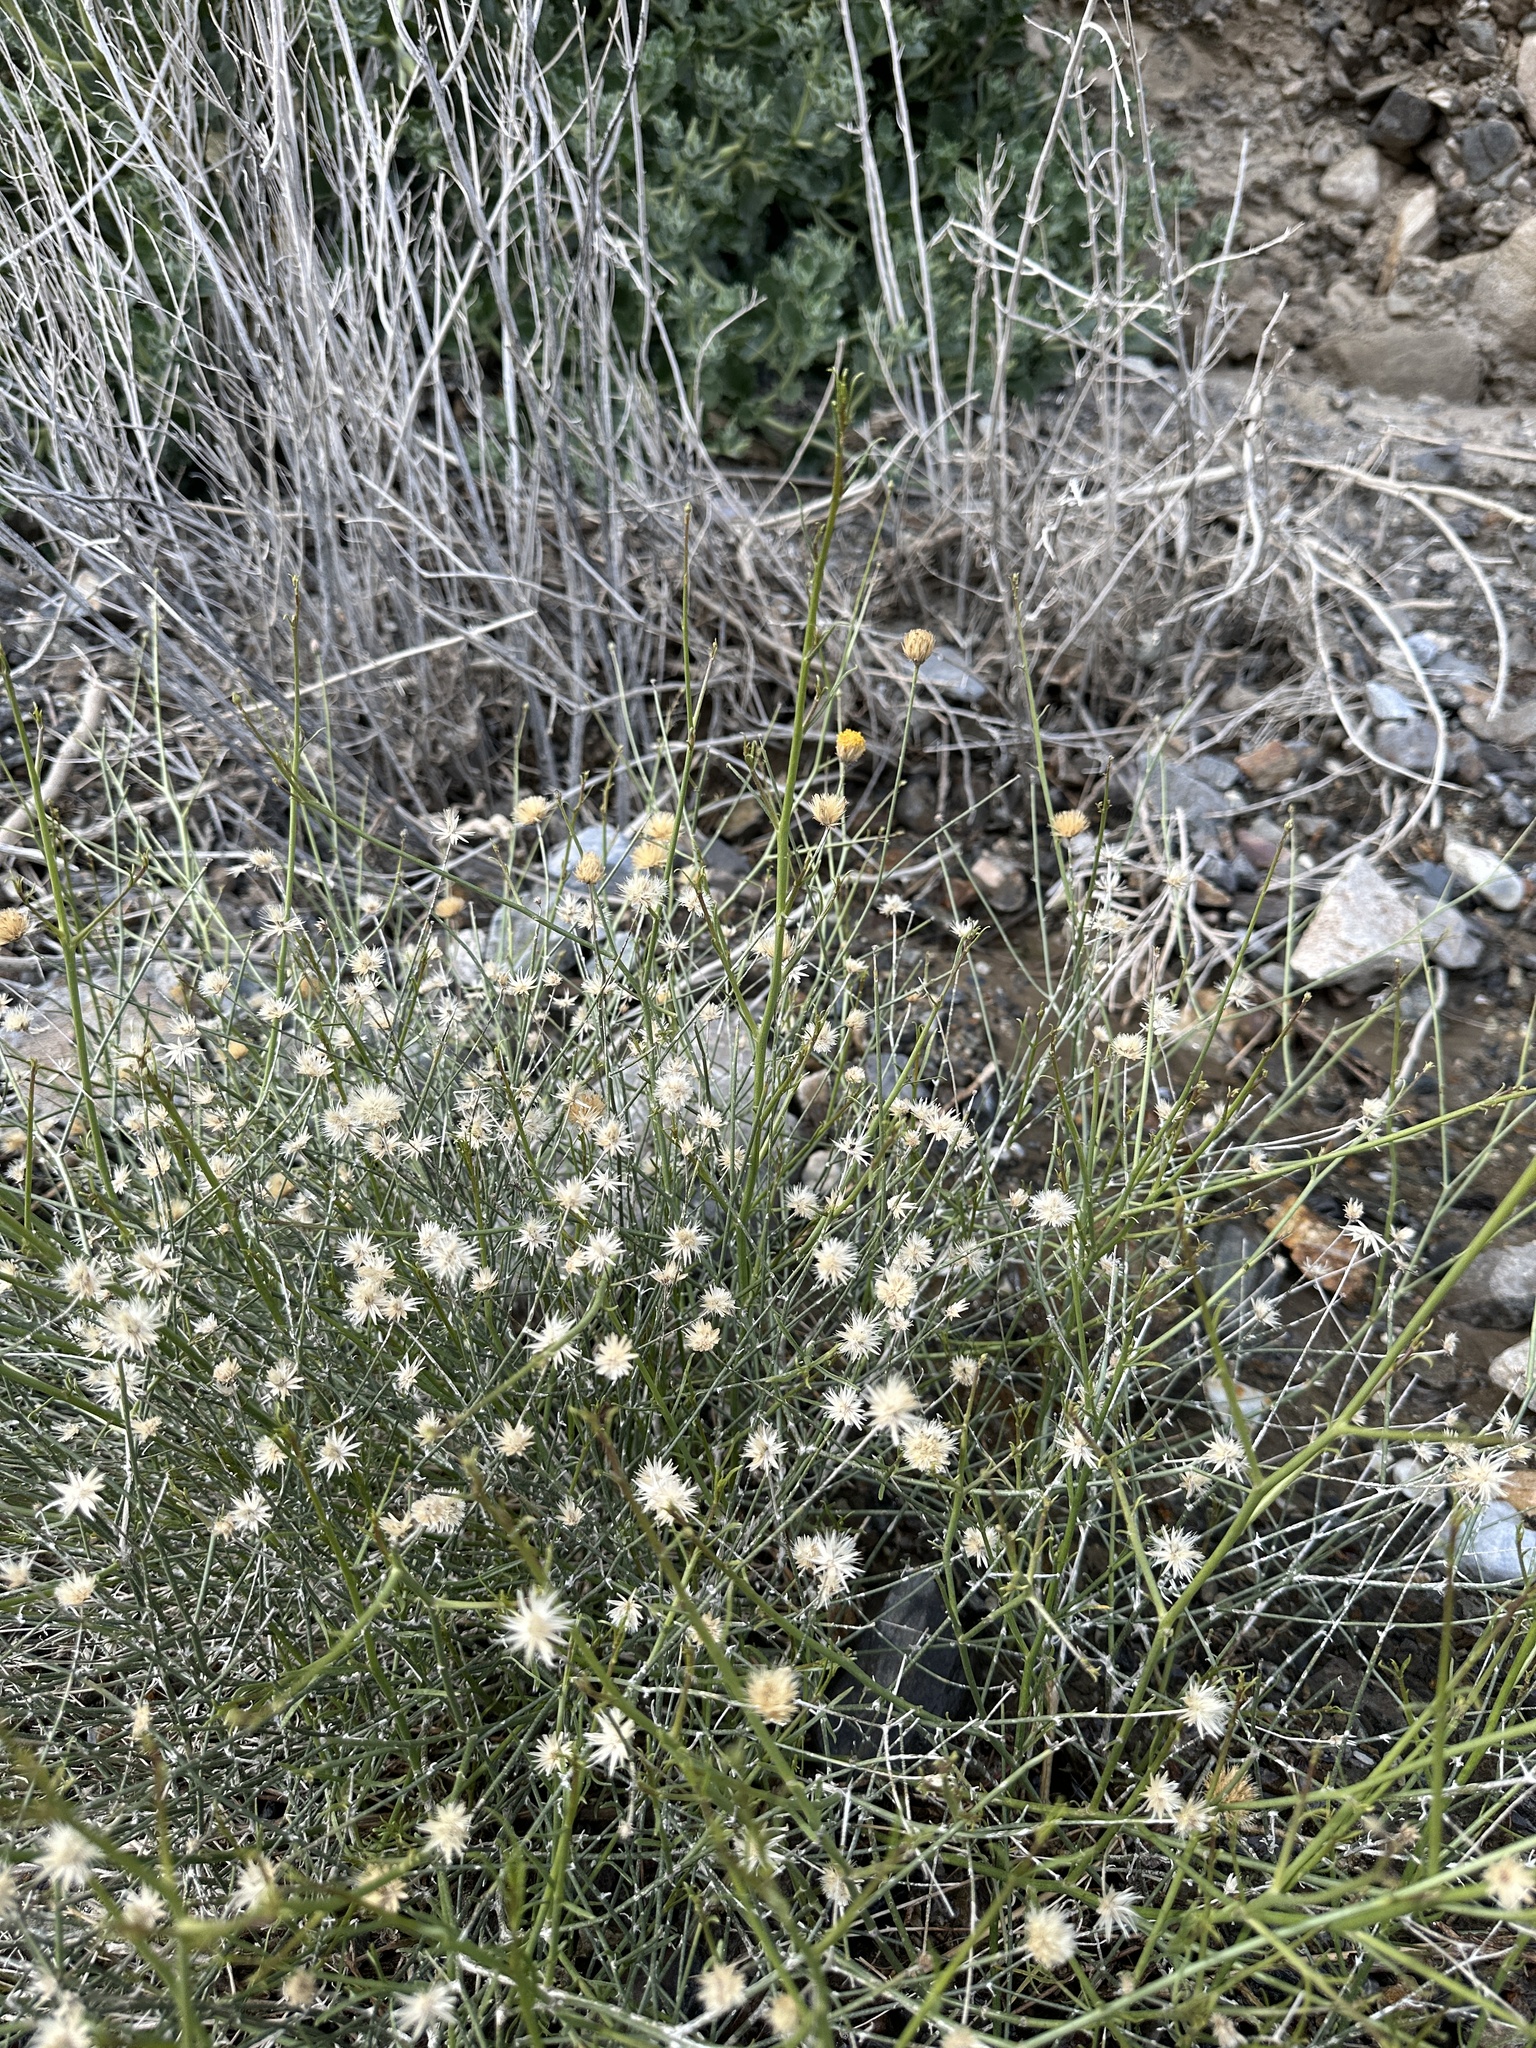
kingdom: Plantae
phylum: Tracheophyta
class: Magnoliopsida
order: Asterales
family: Asteraceae
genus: Bebbia
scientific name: Bebbia juncea
